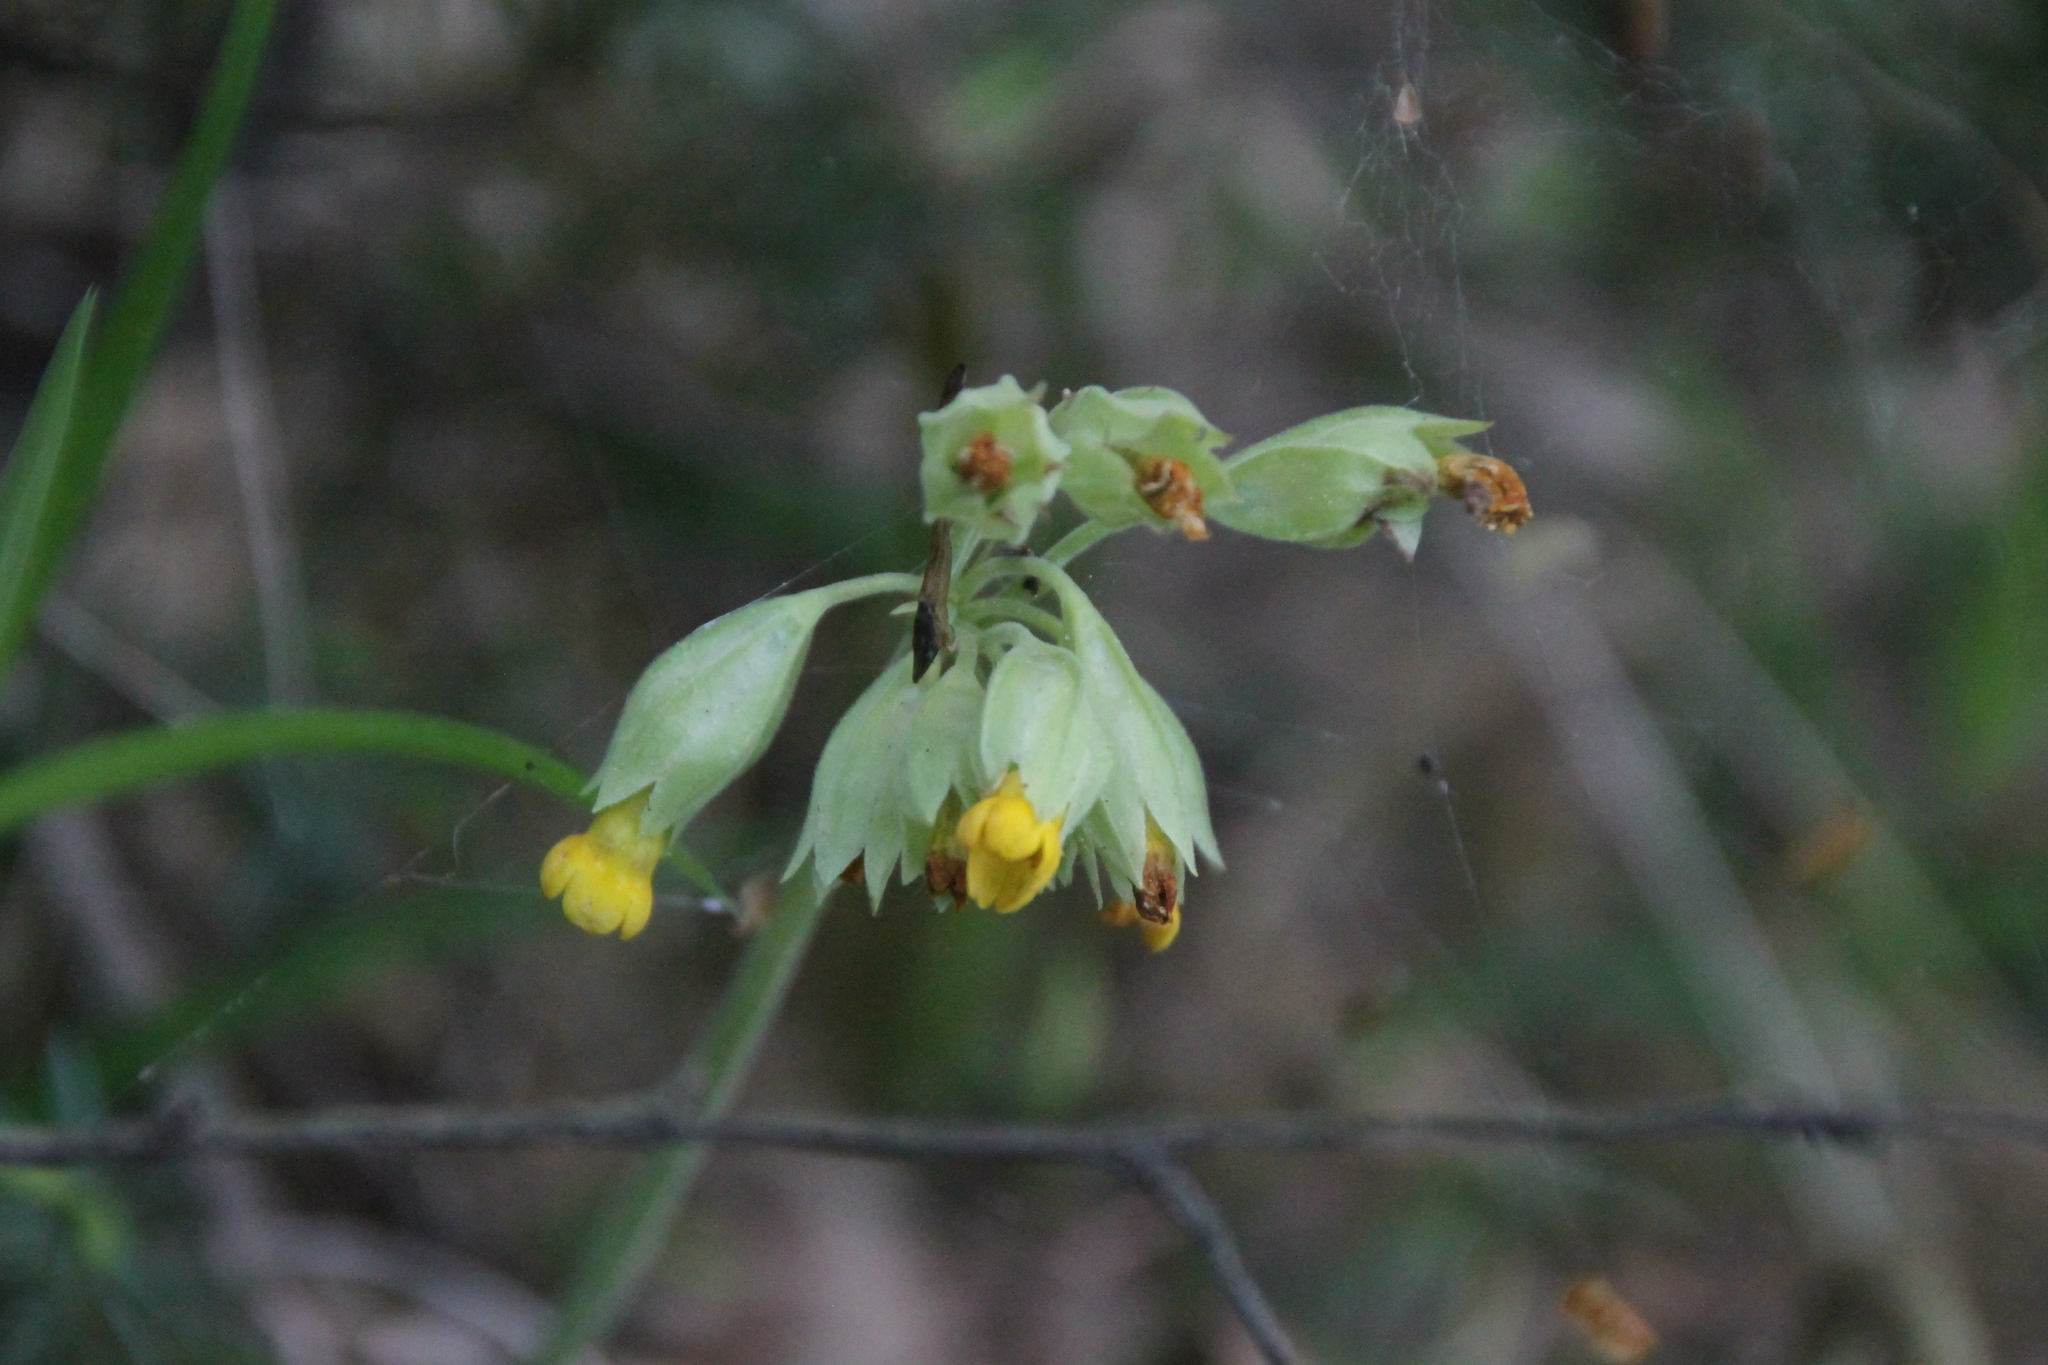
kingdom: Plantae
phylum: Tracheophyta
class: Magnoliopsida
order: Ericales
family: Primulaceae
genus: Primula
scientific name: Primula veris
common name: Cowslip
